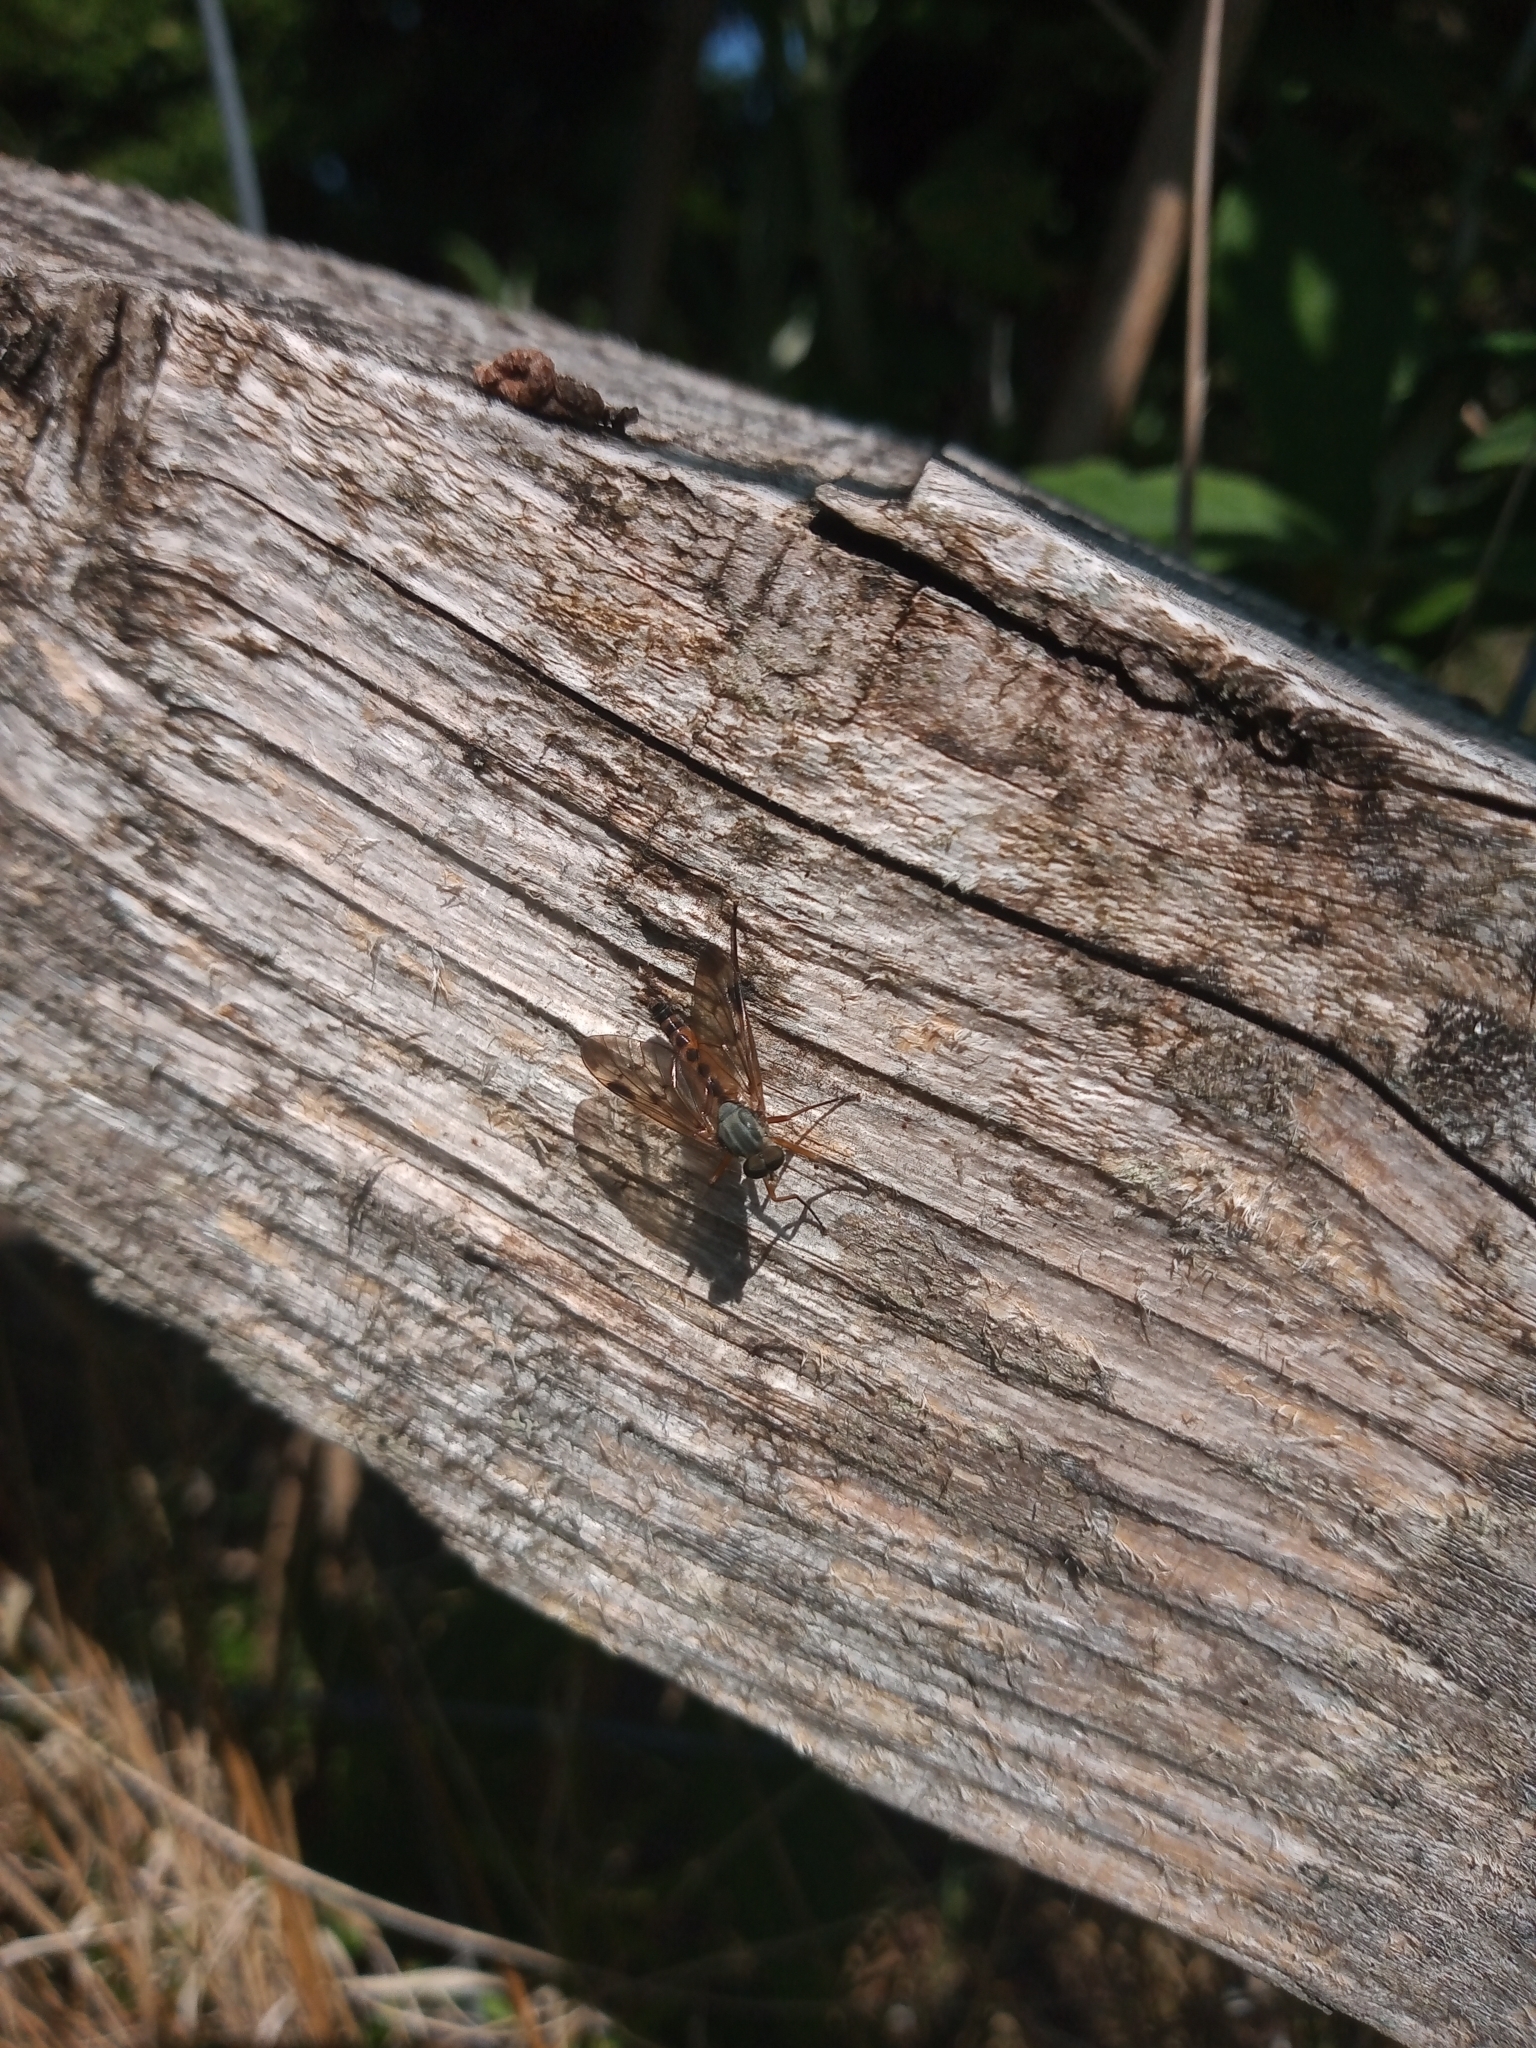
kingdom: Animalia
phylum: Arthropoda
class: Insecta
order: Diptera
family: Rhagionidae
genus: Rhagio
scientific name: Rhagio scolopacea
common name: Downlooker snipefly
